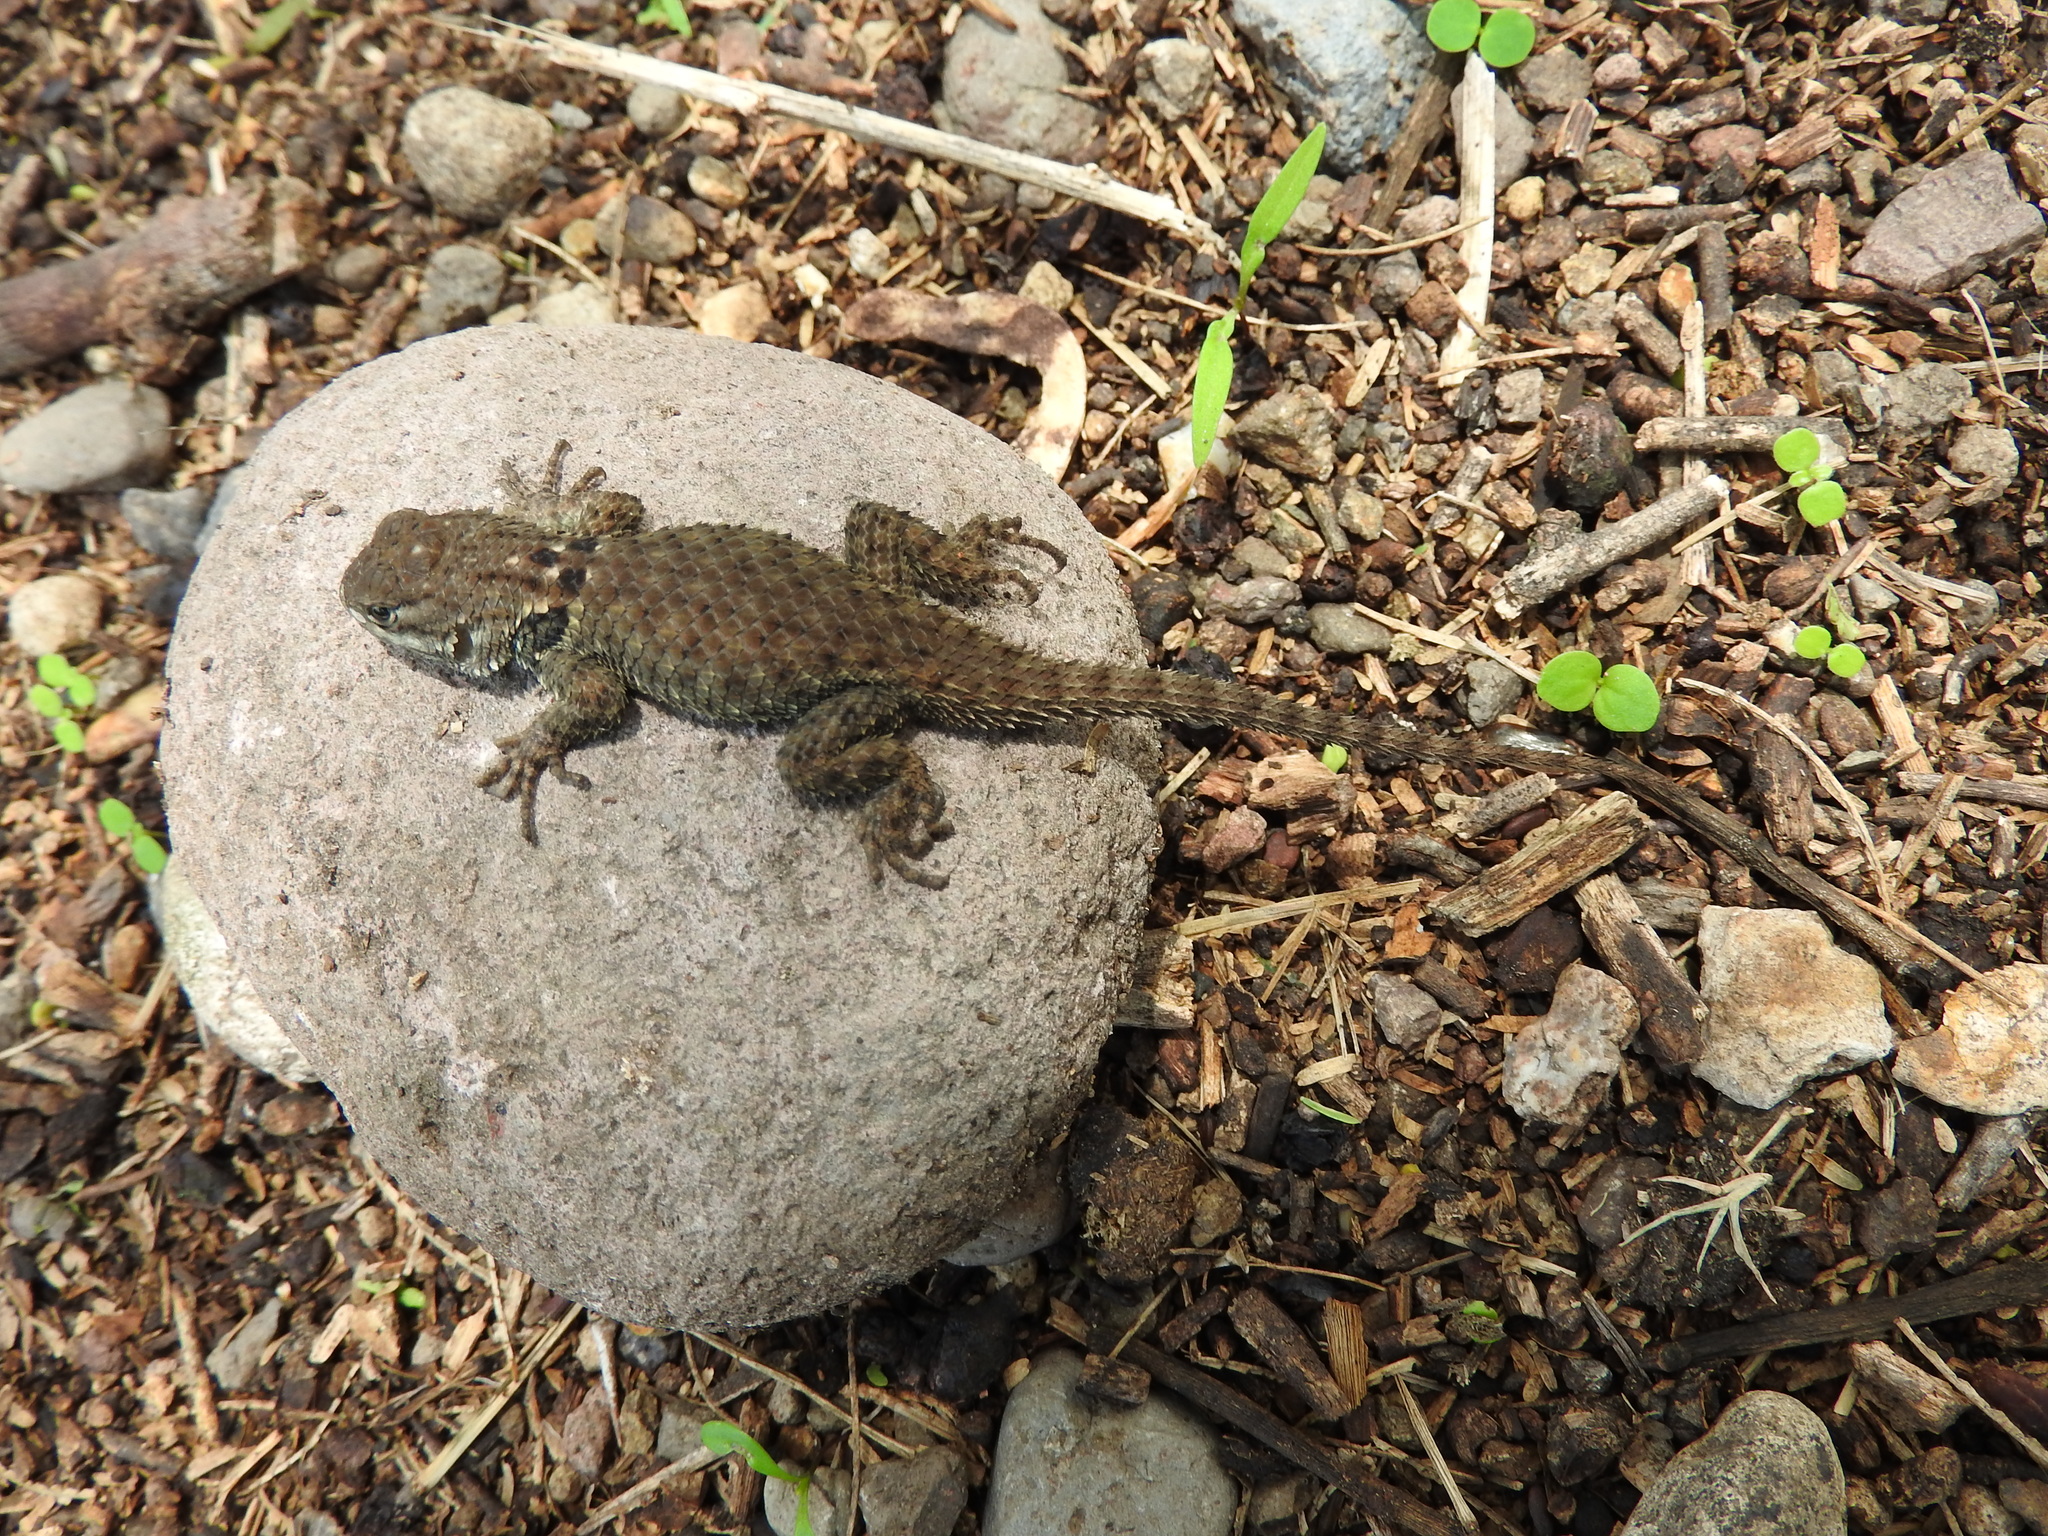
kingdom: Animalia
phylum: Chordata
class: Squamata
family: Phrynosomatidae
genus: Sceloporus
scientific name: Sceloporus torquatus
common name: Central plateau torquate lizard [melanogaster]
